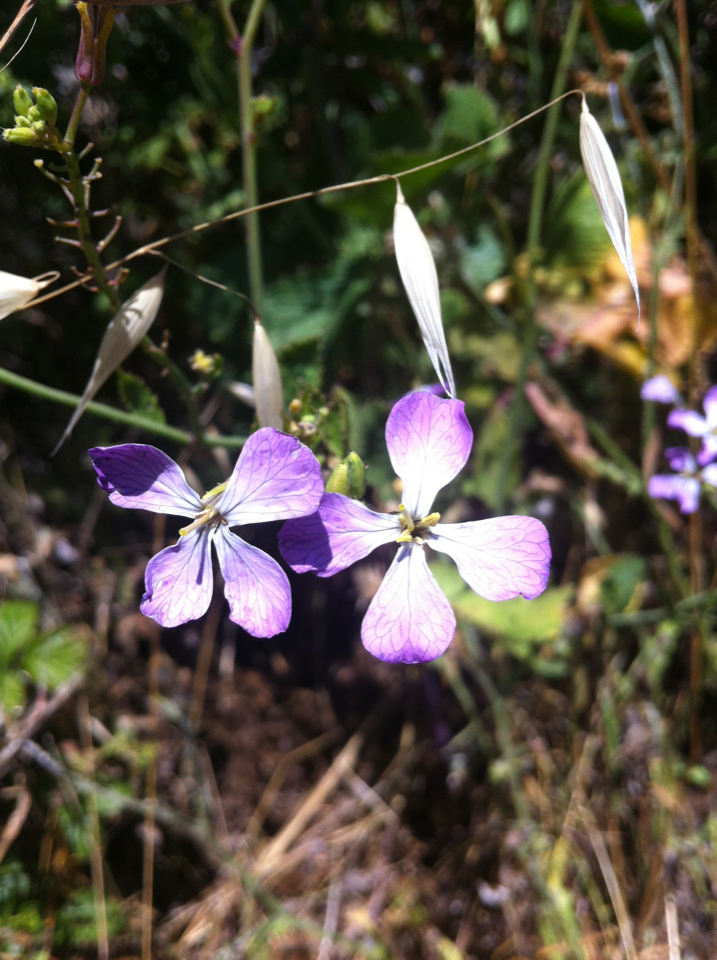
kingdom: Plantae
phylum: Tracheophyta
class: Magnoliopsida
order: Brassicales
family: Brassicaceae
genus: Raphanus
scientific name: Raphanus sativus
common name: Cultivated radish
